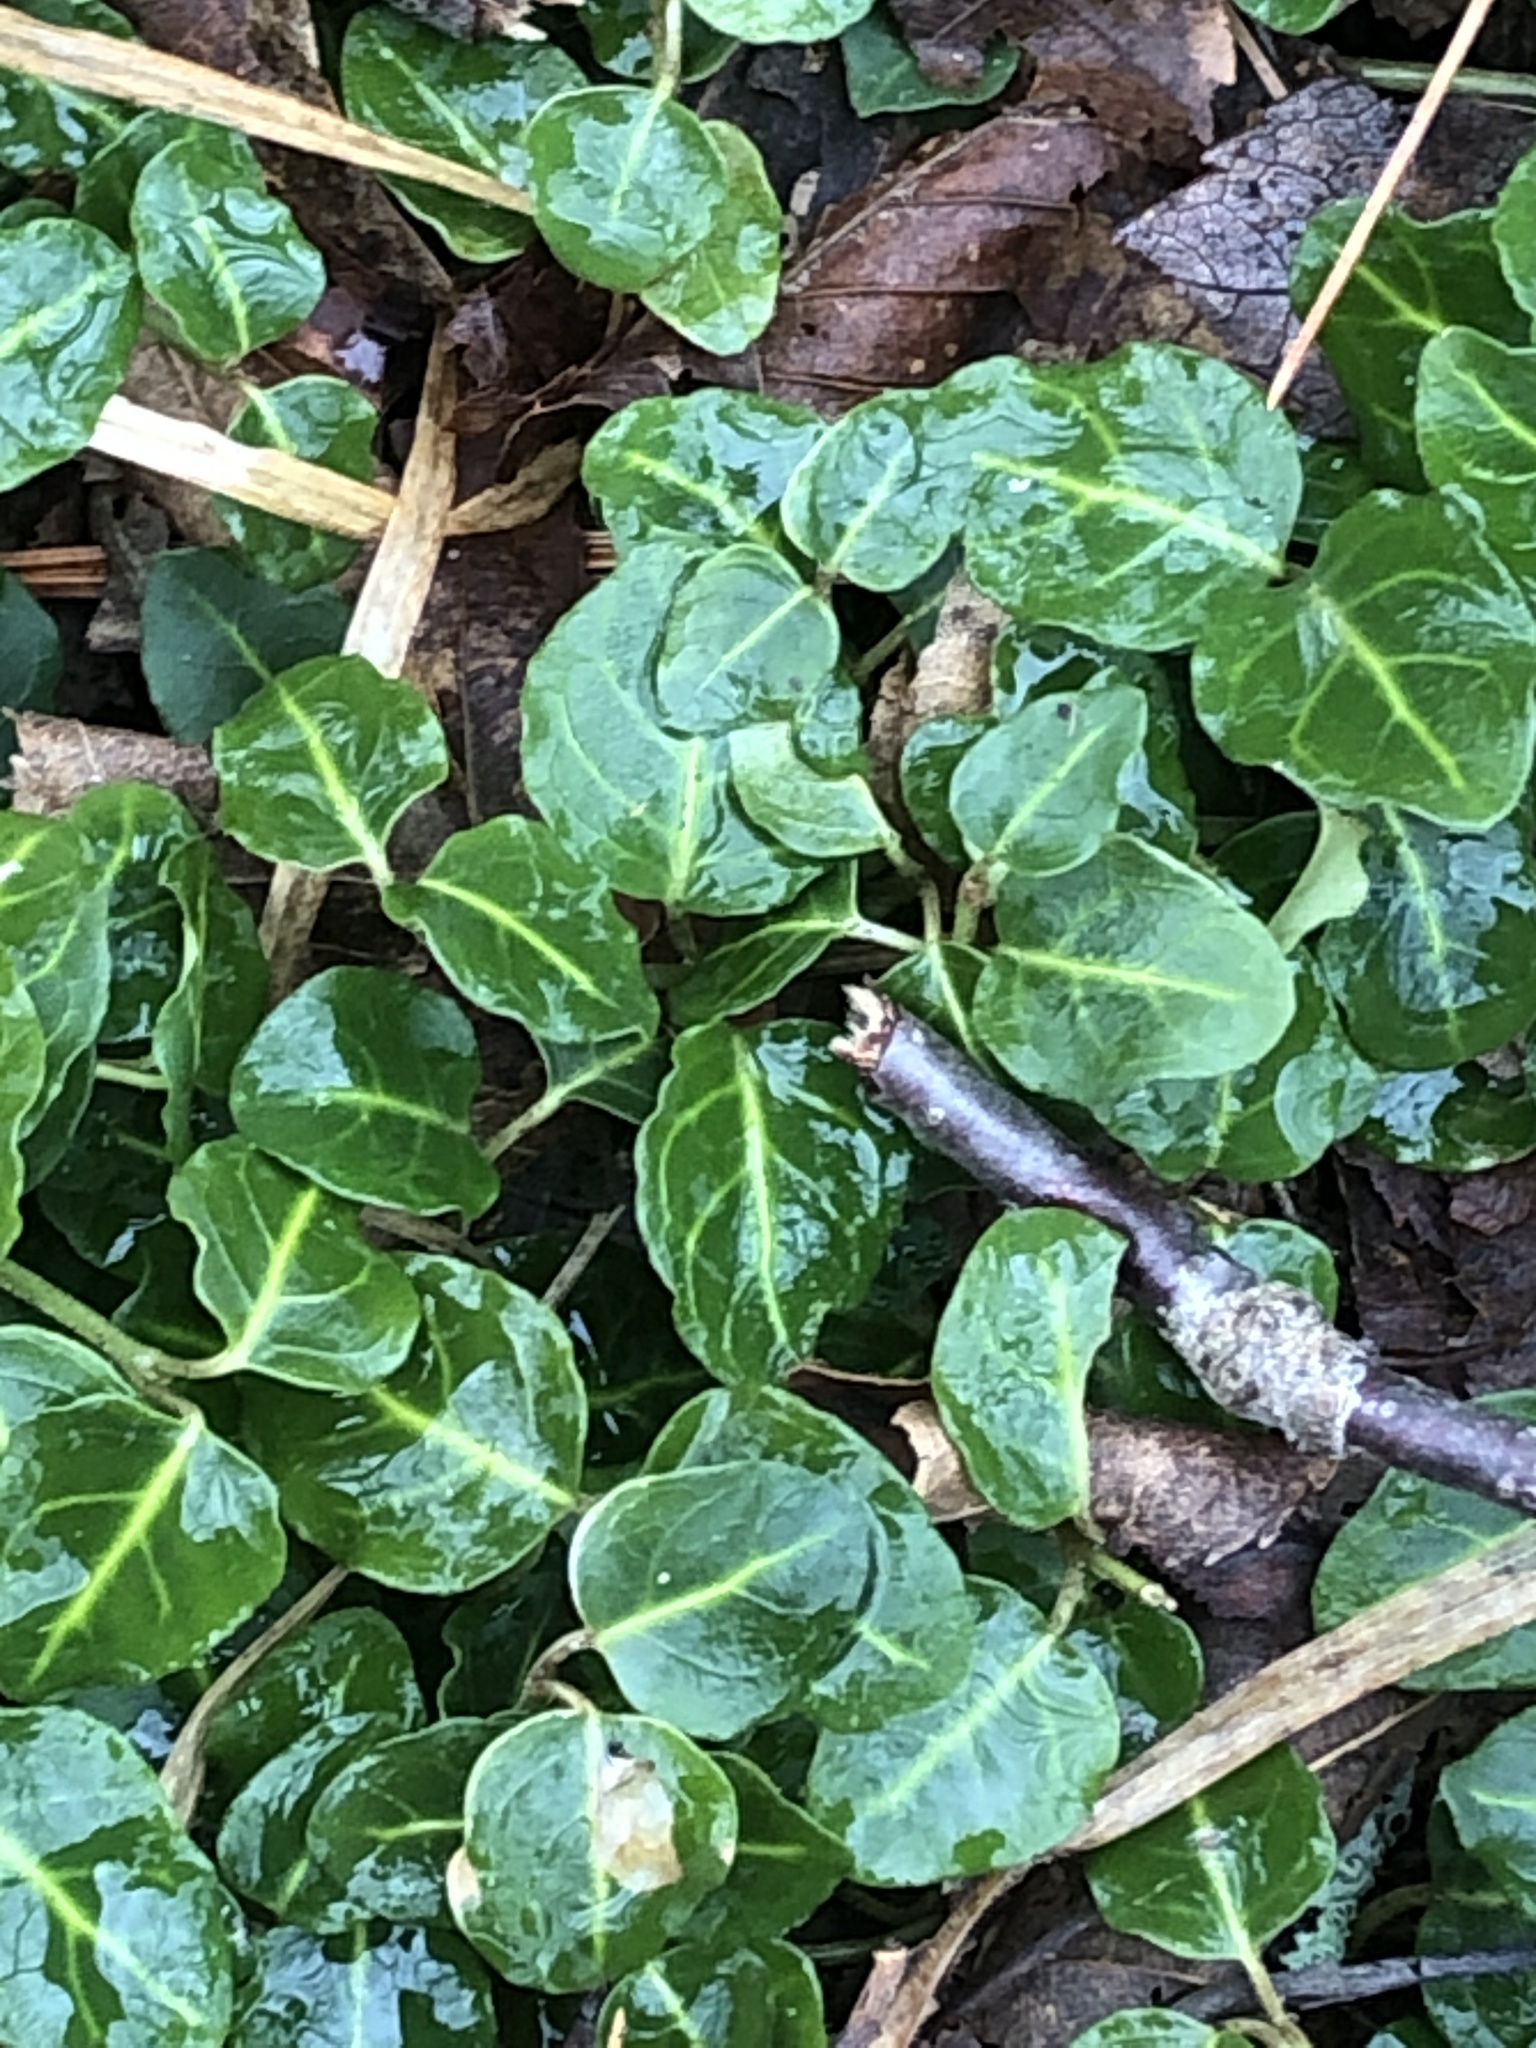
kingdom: Plantae
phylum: Tracheophyta
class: Magnoliopsida
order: Gentianales
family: Rubiaceae
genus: Mitchella
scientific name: Mitchella repens
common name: Partridge-berry
